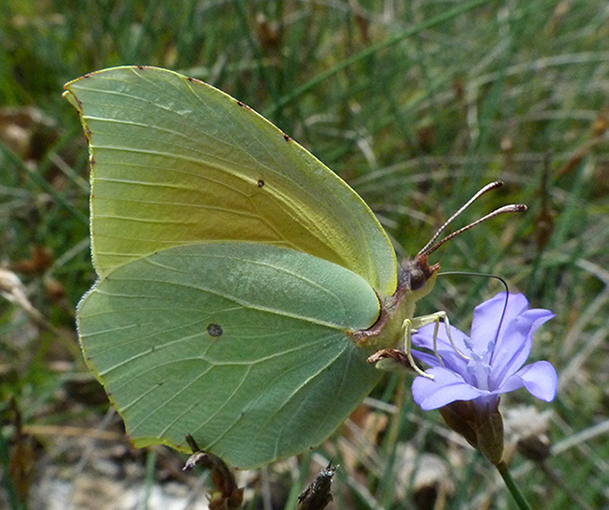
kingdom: Animalia
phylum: Arthropoda
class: Insecta
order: Lepidoptera
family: Pieridae
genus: Gonepteryx
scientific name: Gonepteryx cleopatra
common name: Cleopatra
